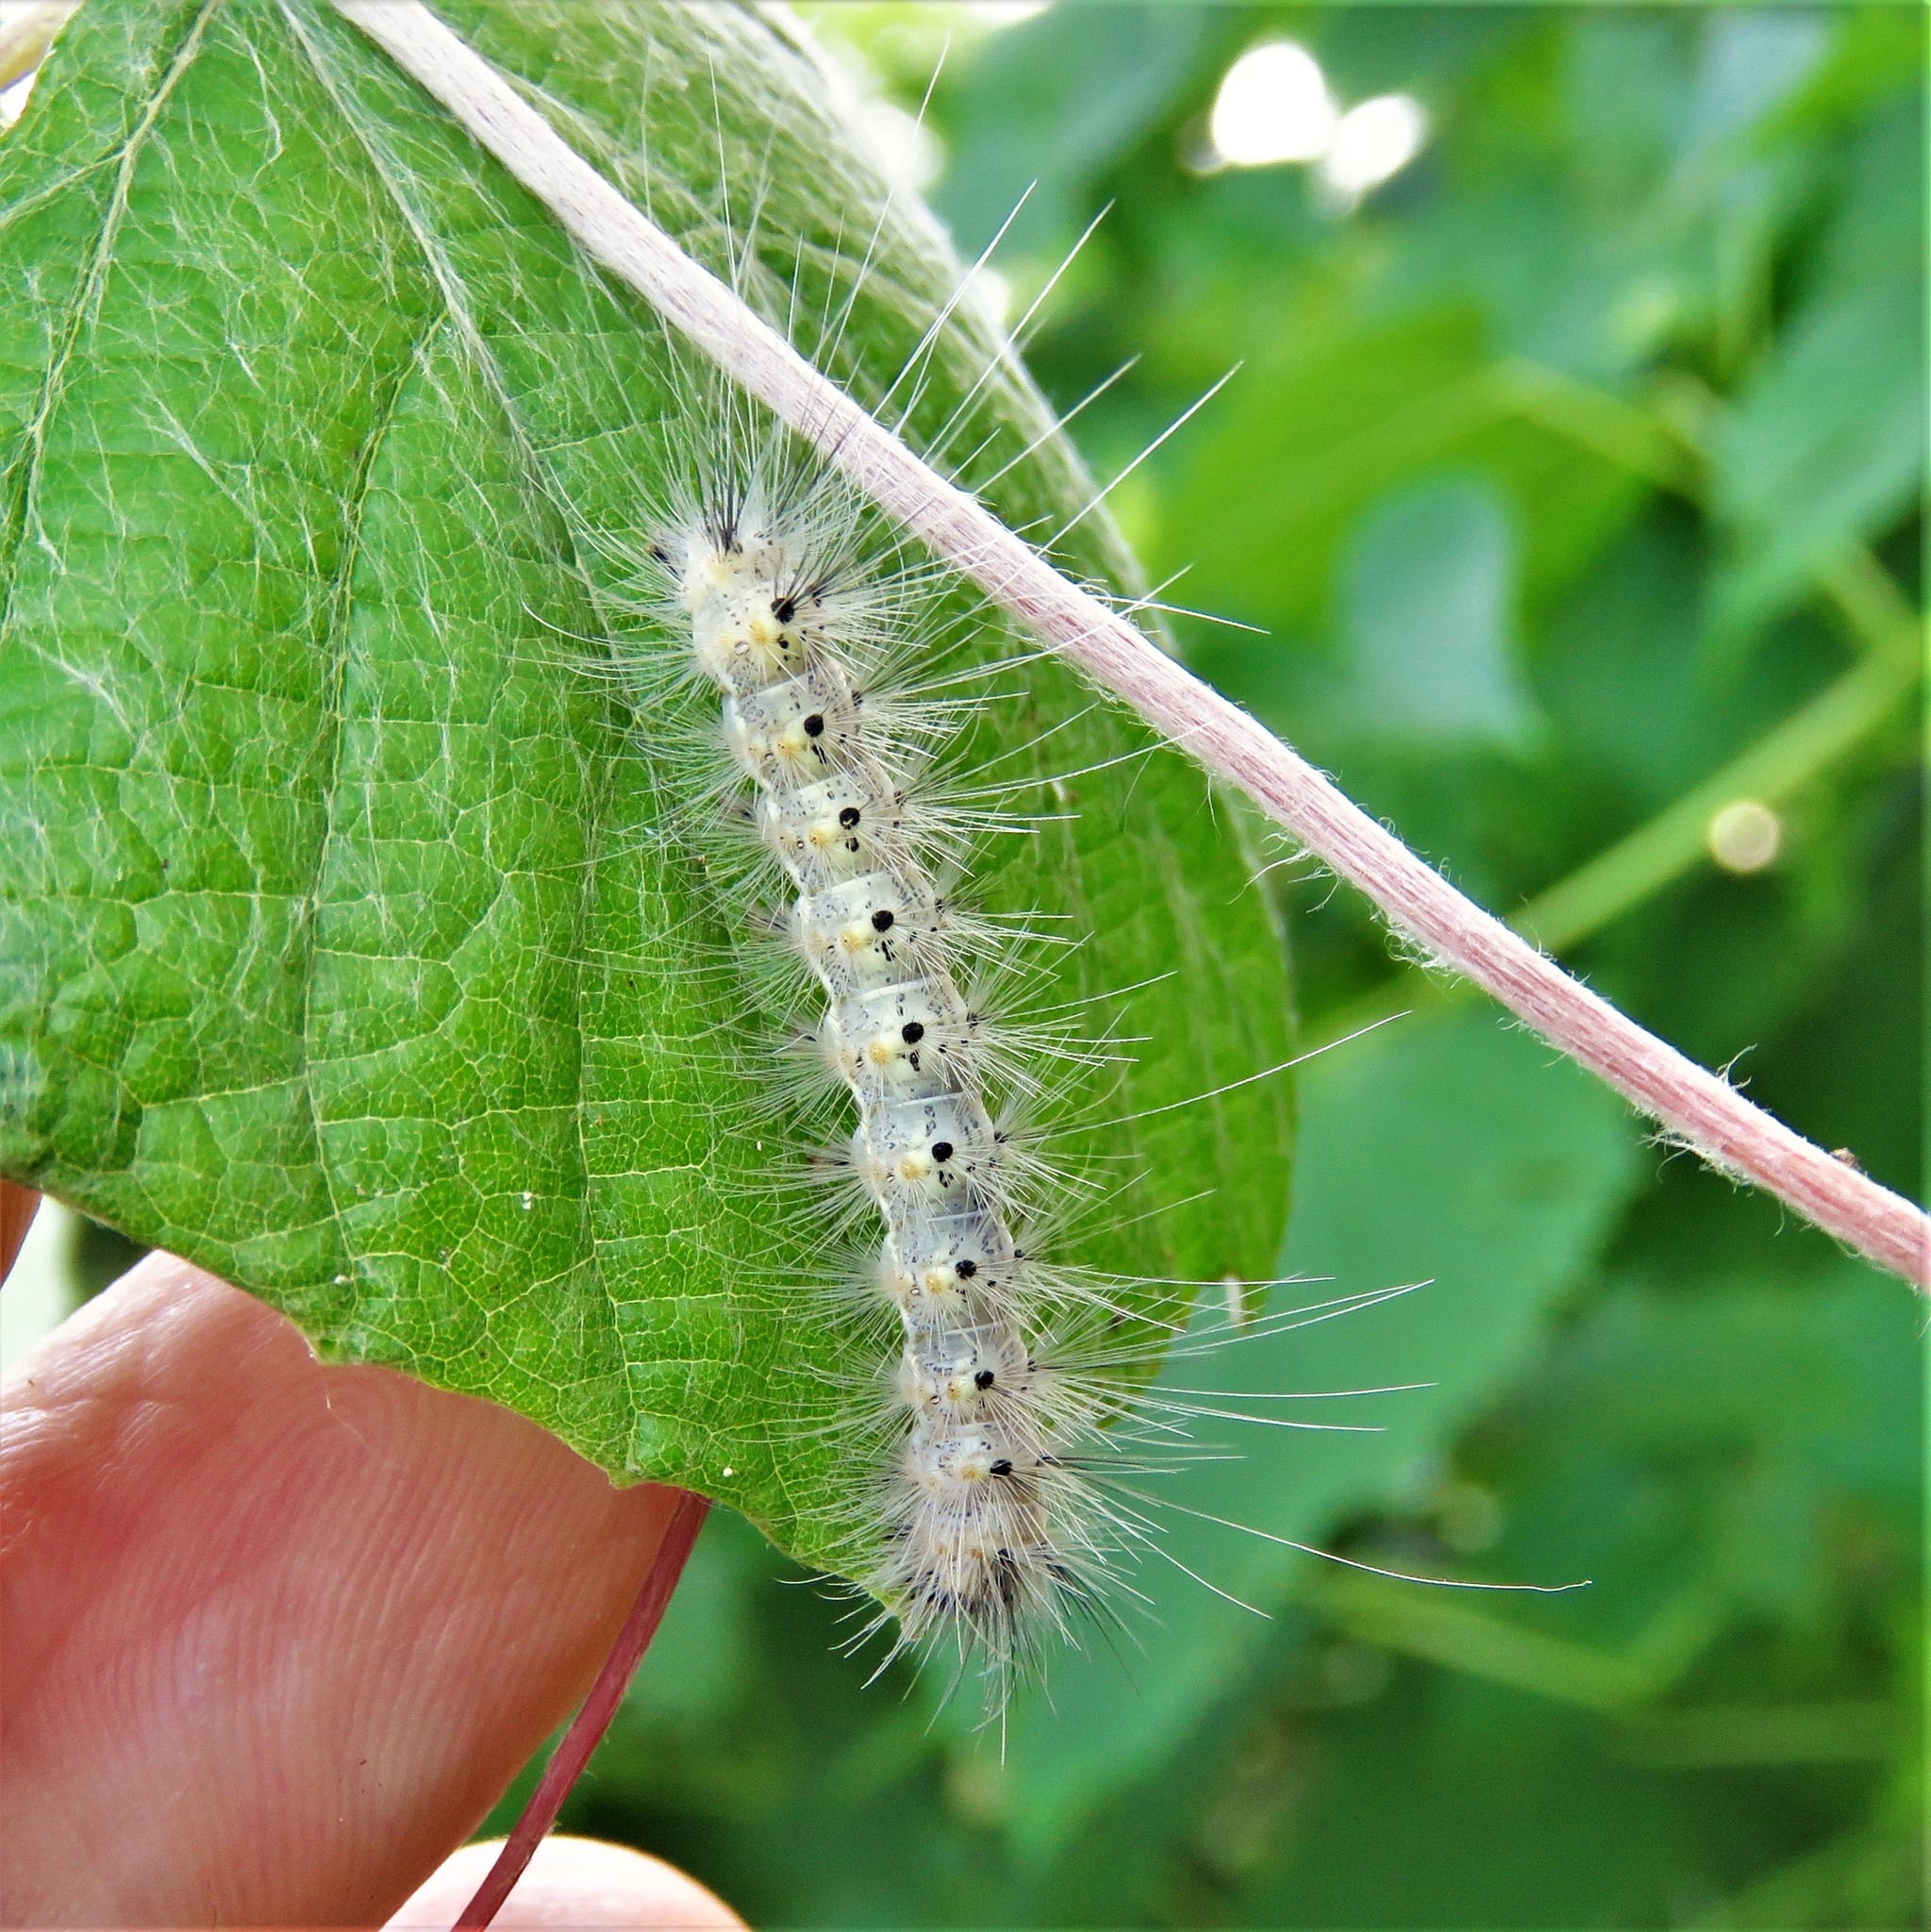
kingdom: Animalia
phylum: Arthropoda
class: Insecta
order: Lepidoptera
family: Erebidae
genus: Hyphantria
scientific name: Hyphantria cunea
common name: American white moth
